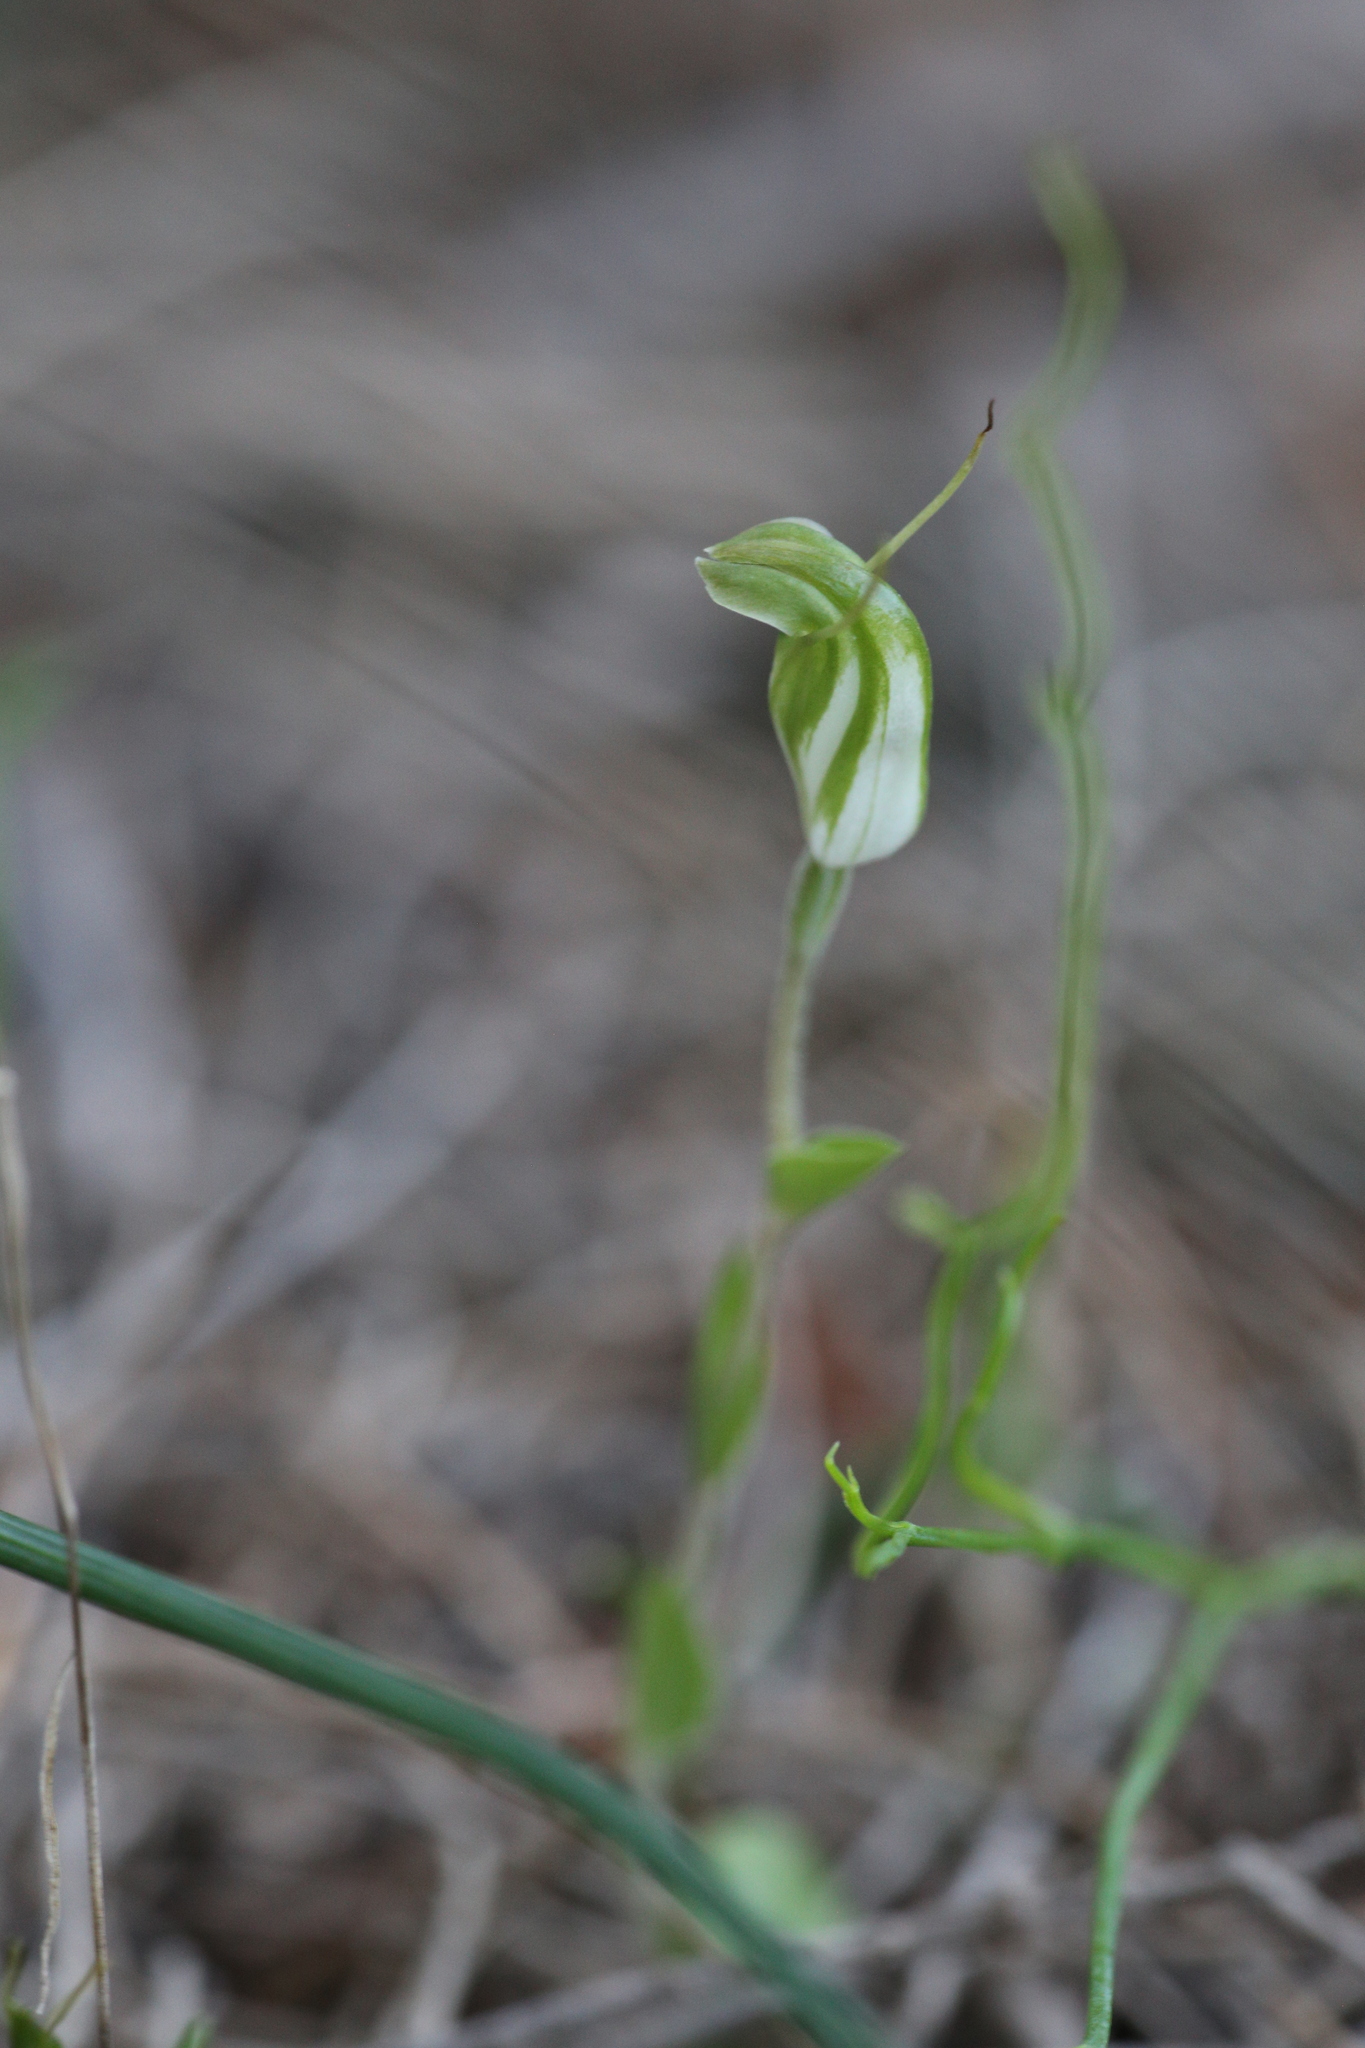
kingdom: Plantae
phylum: Tracheophyta
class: Liliopsida
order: Asparagales
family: Orchidaceae
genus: Pterostylis
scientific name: Pterostylis setulosa
